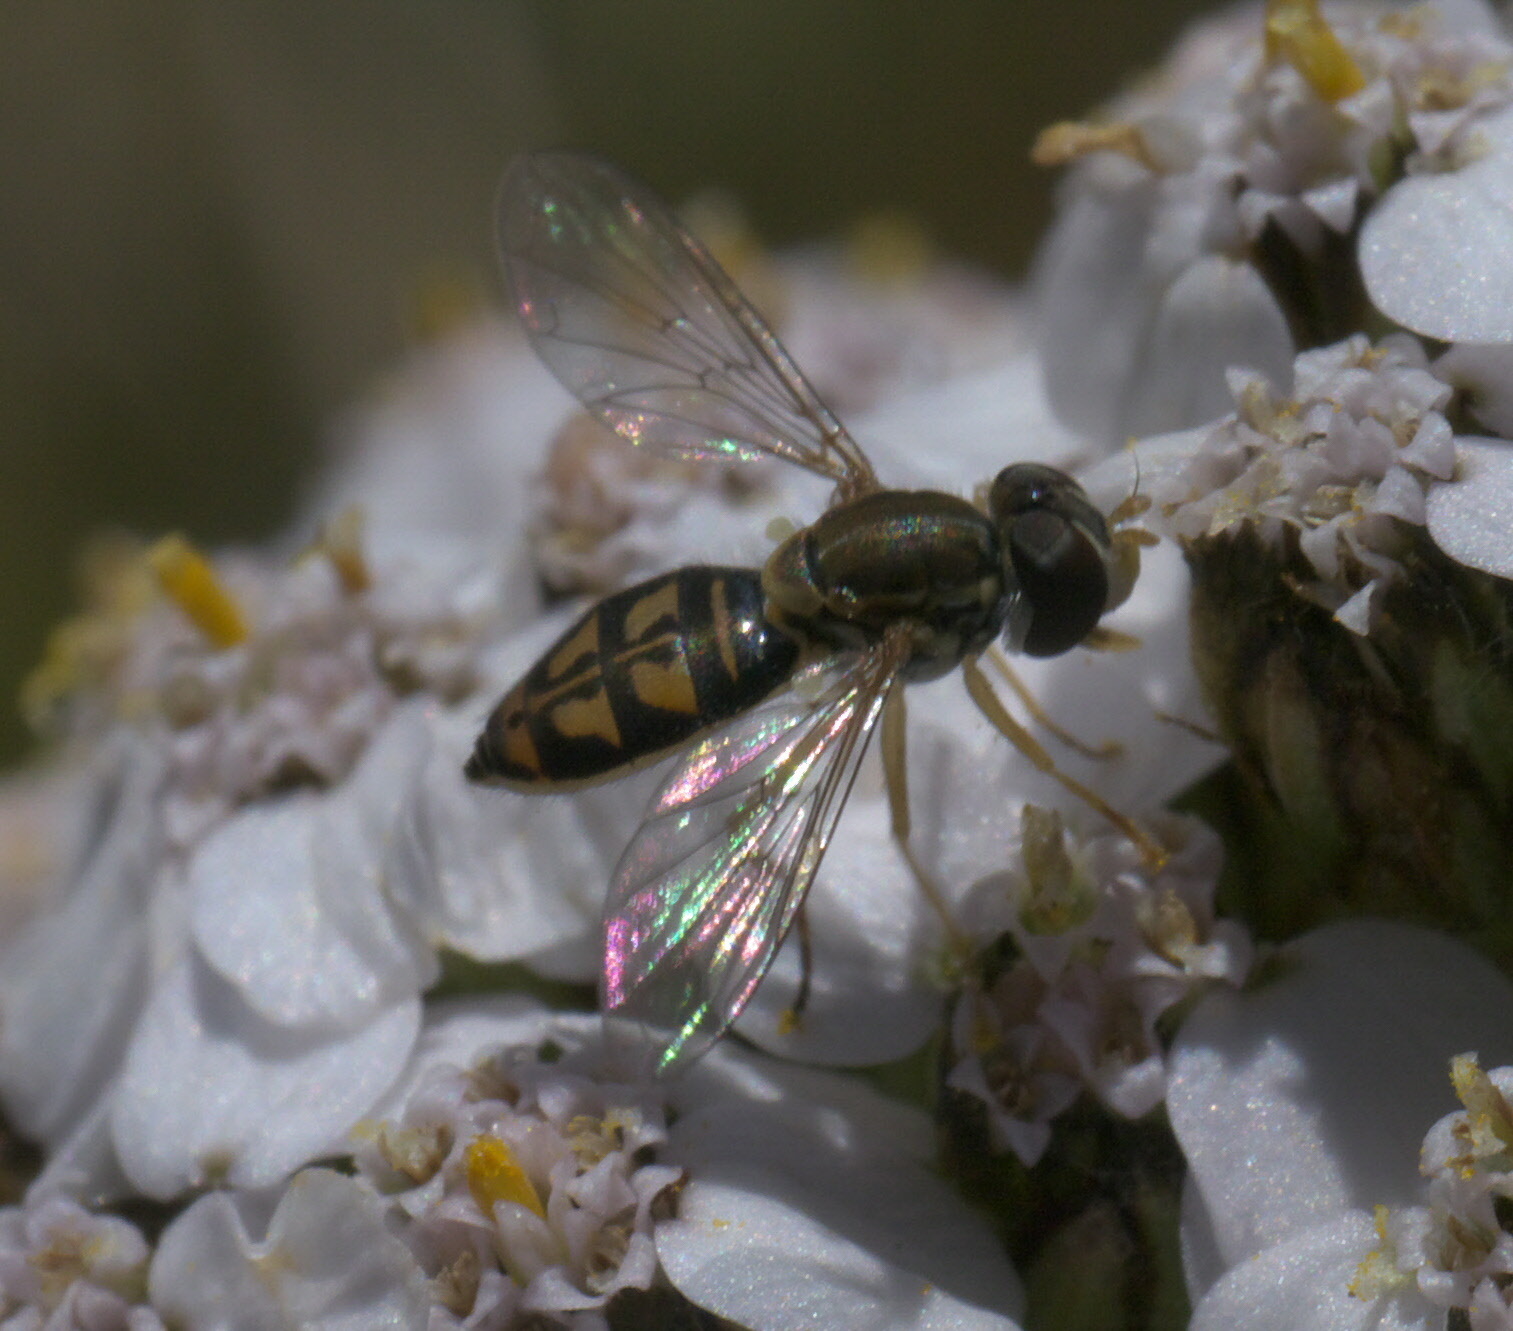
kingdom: Animalia
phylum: Arthropoda
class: Insecta
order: Diptera
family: Syrphidae
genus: Toxomerus
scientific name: Toxomerus marginatus
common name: Syrphid fly
